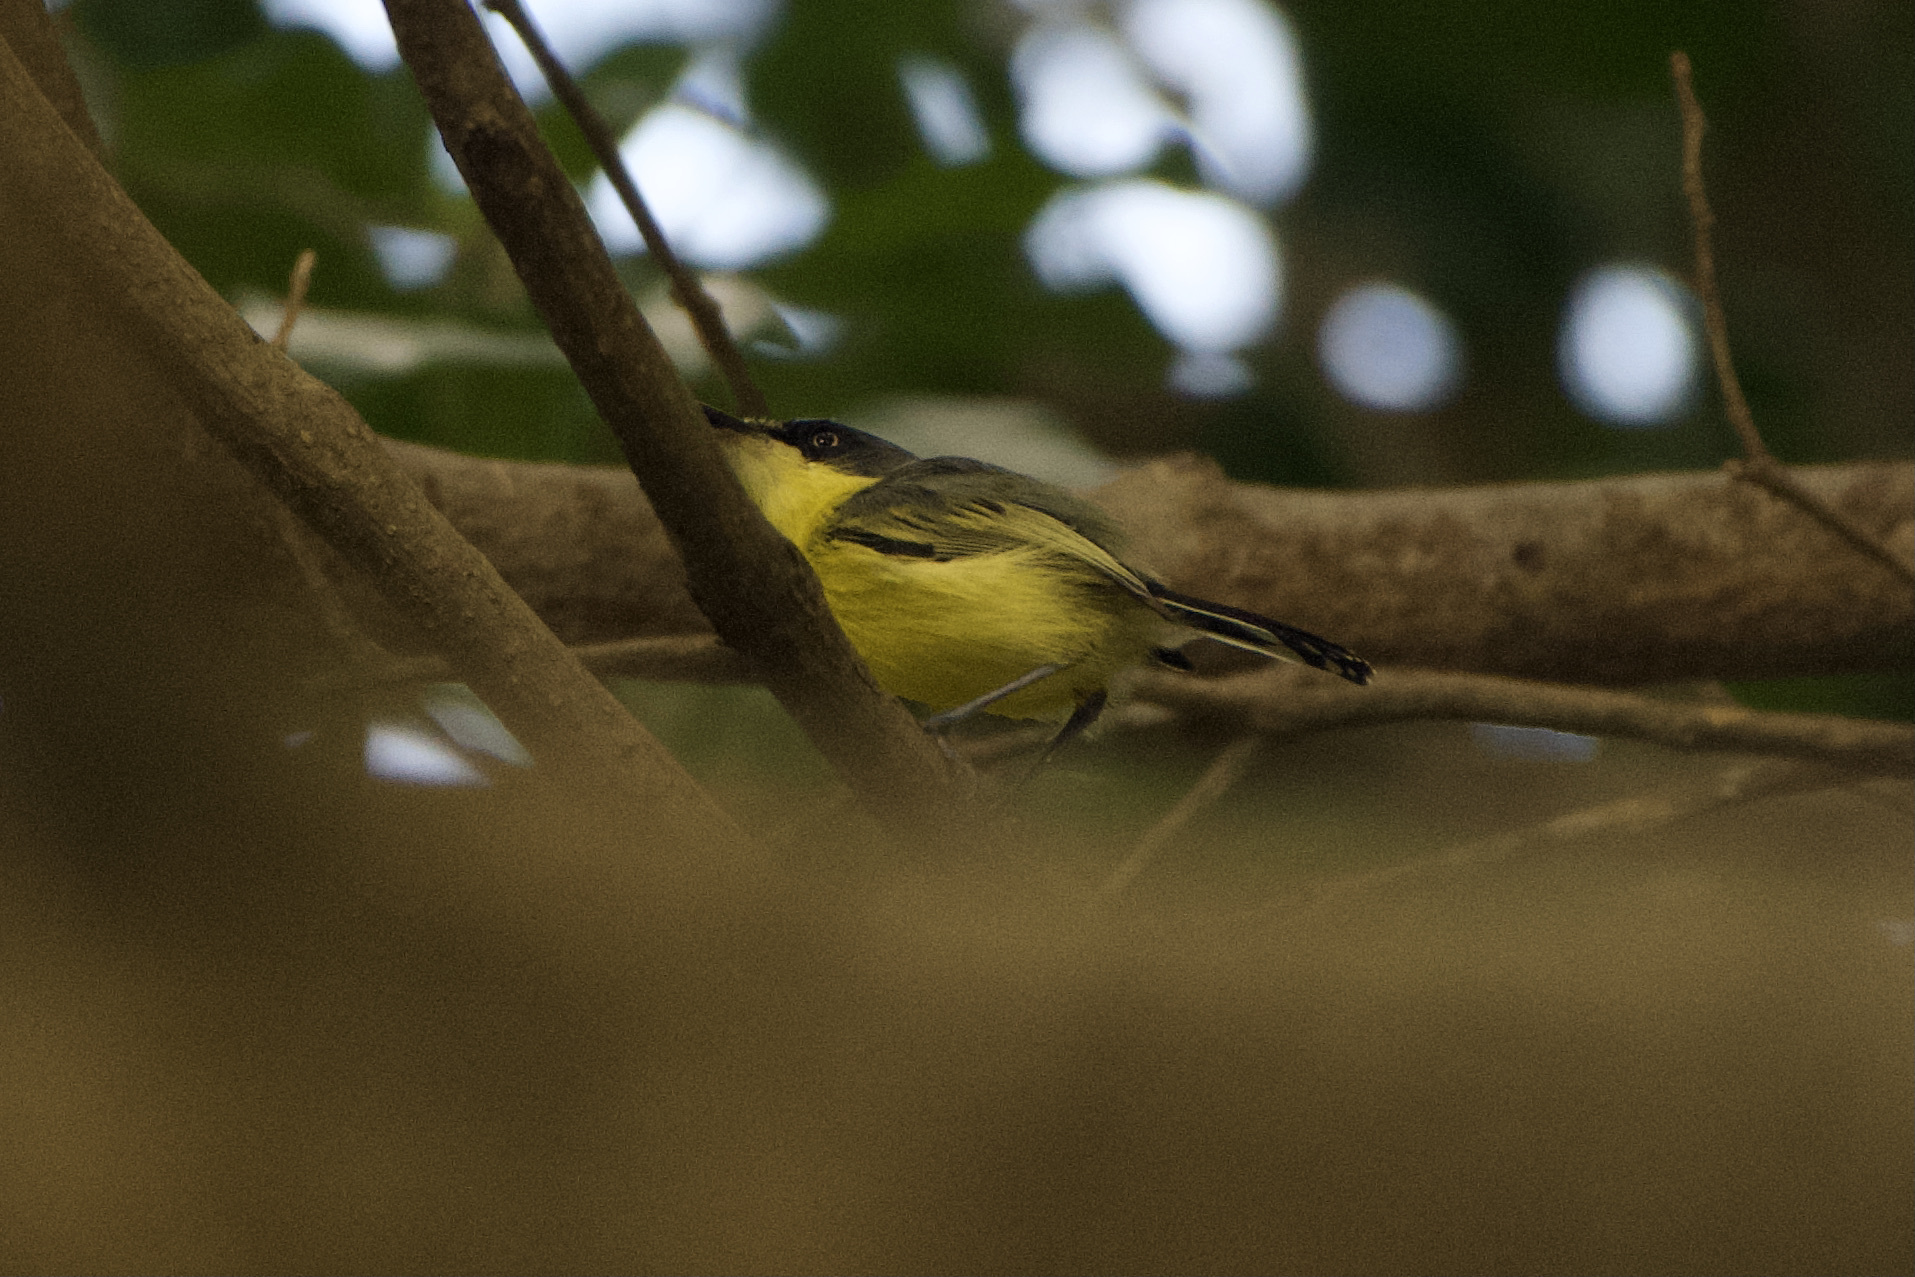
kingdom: Animalia
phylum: Chordata
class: Aves
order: Passeriformes
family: Tyrannidae
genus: Todirostrum
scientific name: Todirostrum cinereum
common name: Common tody-flycatcher
